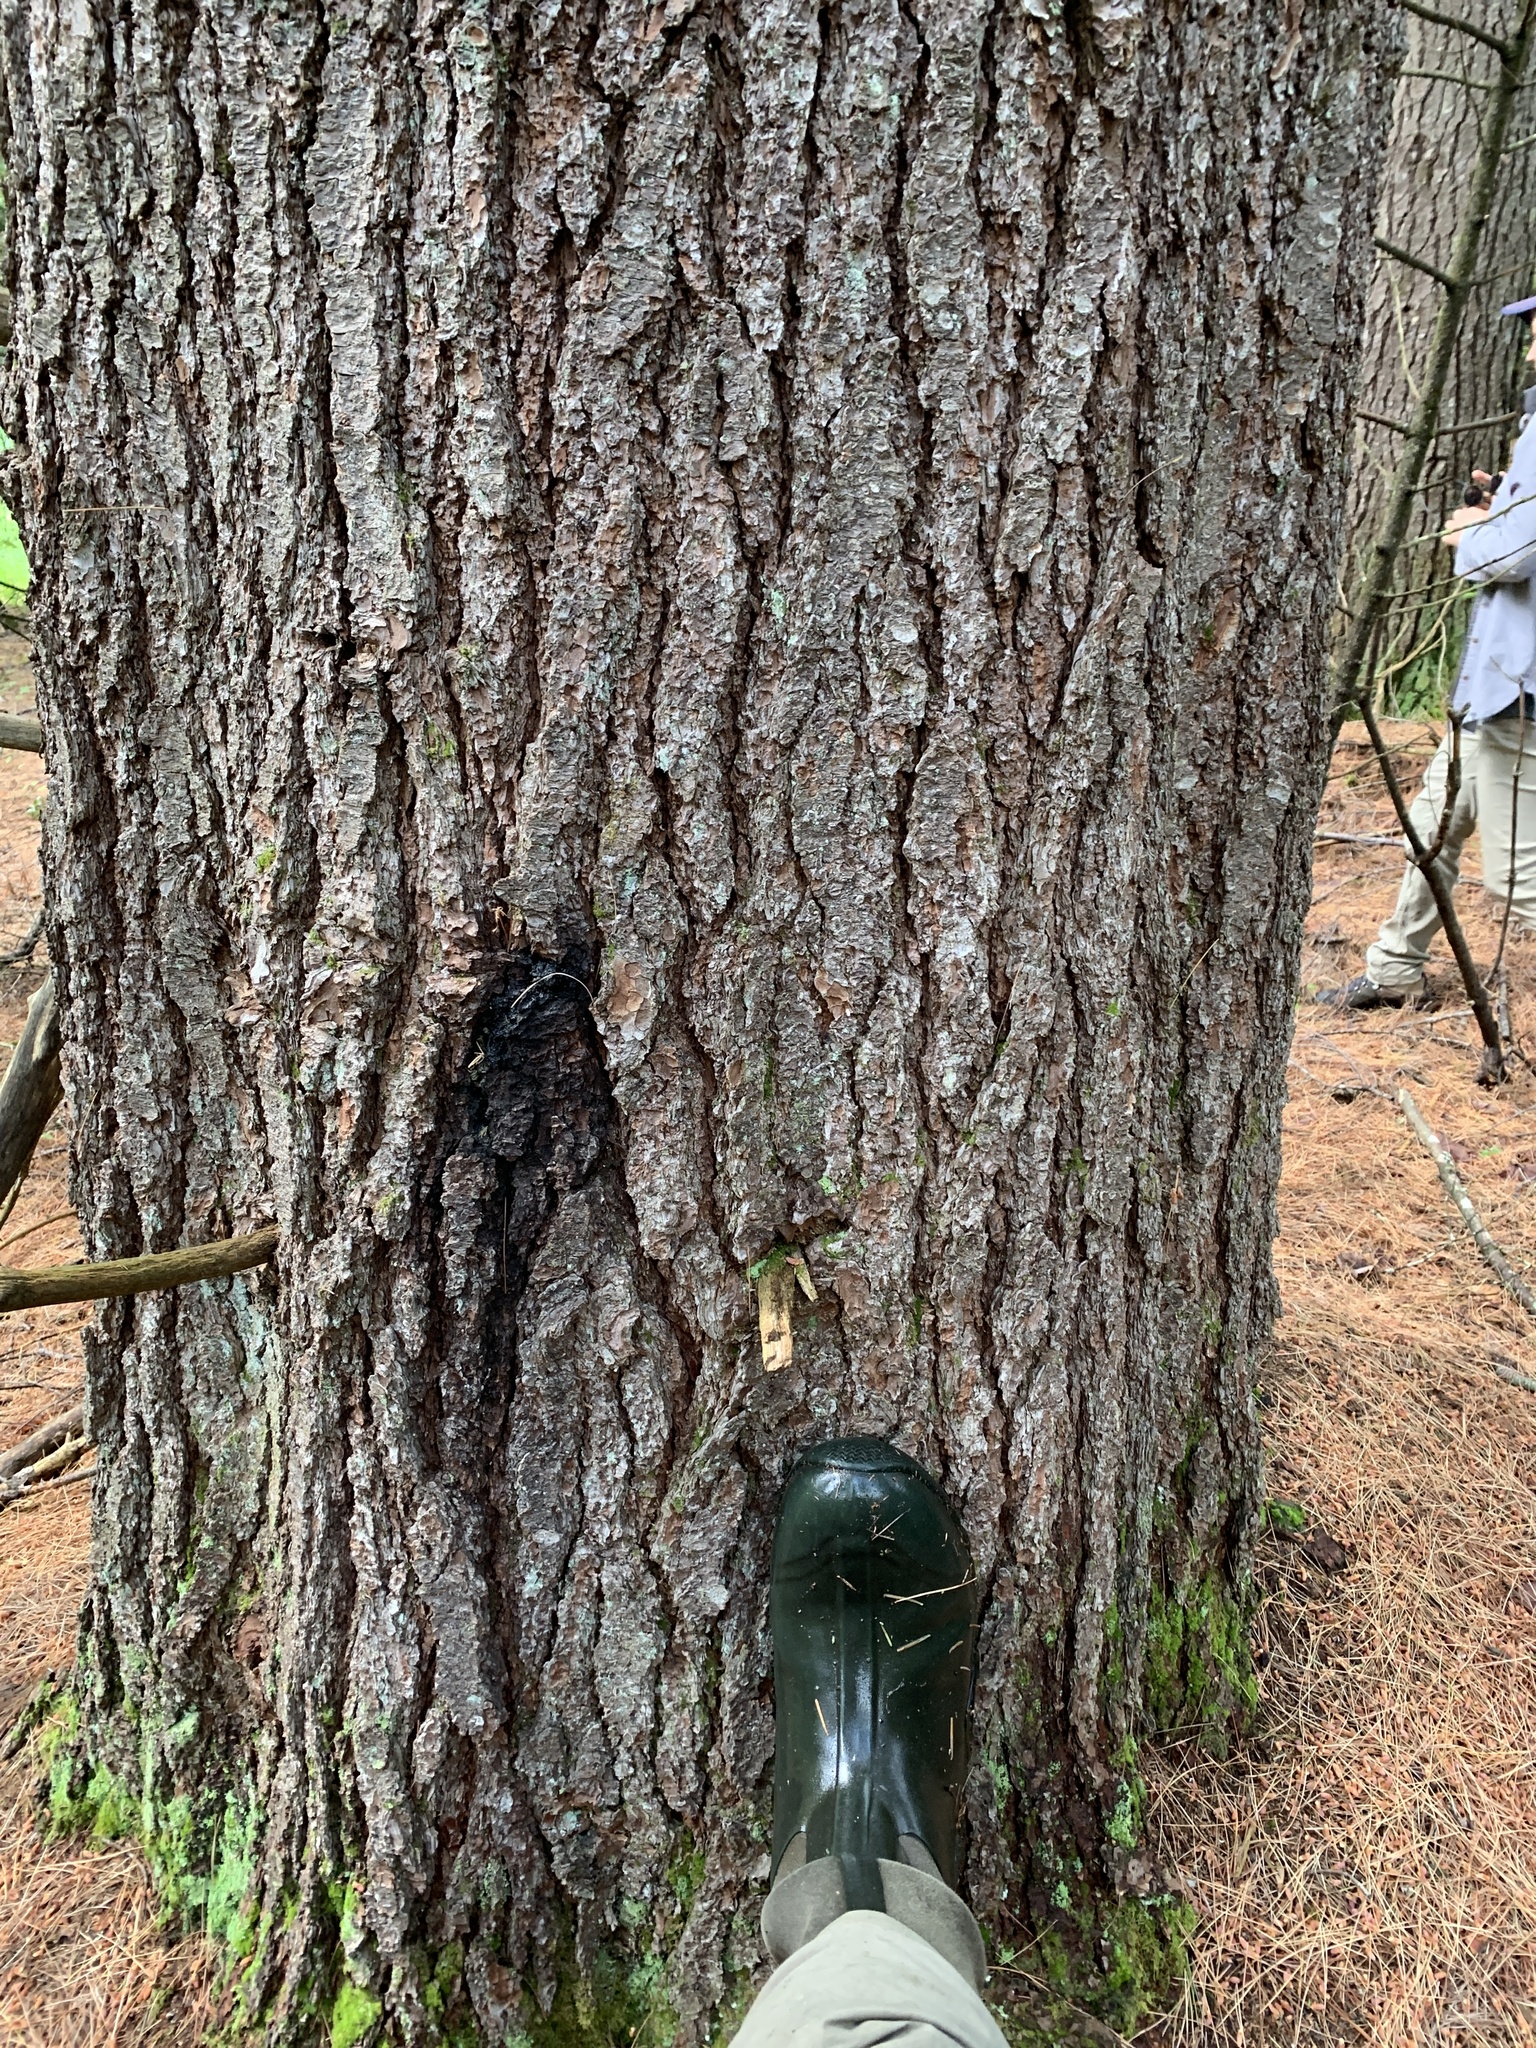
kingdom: Plantae
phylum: Tracheophyta
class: Pinopsida
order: Pinales
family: Pinaceae
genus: Pinus
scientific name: Pinus strobus
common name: Weymouth pine
